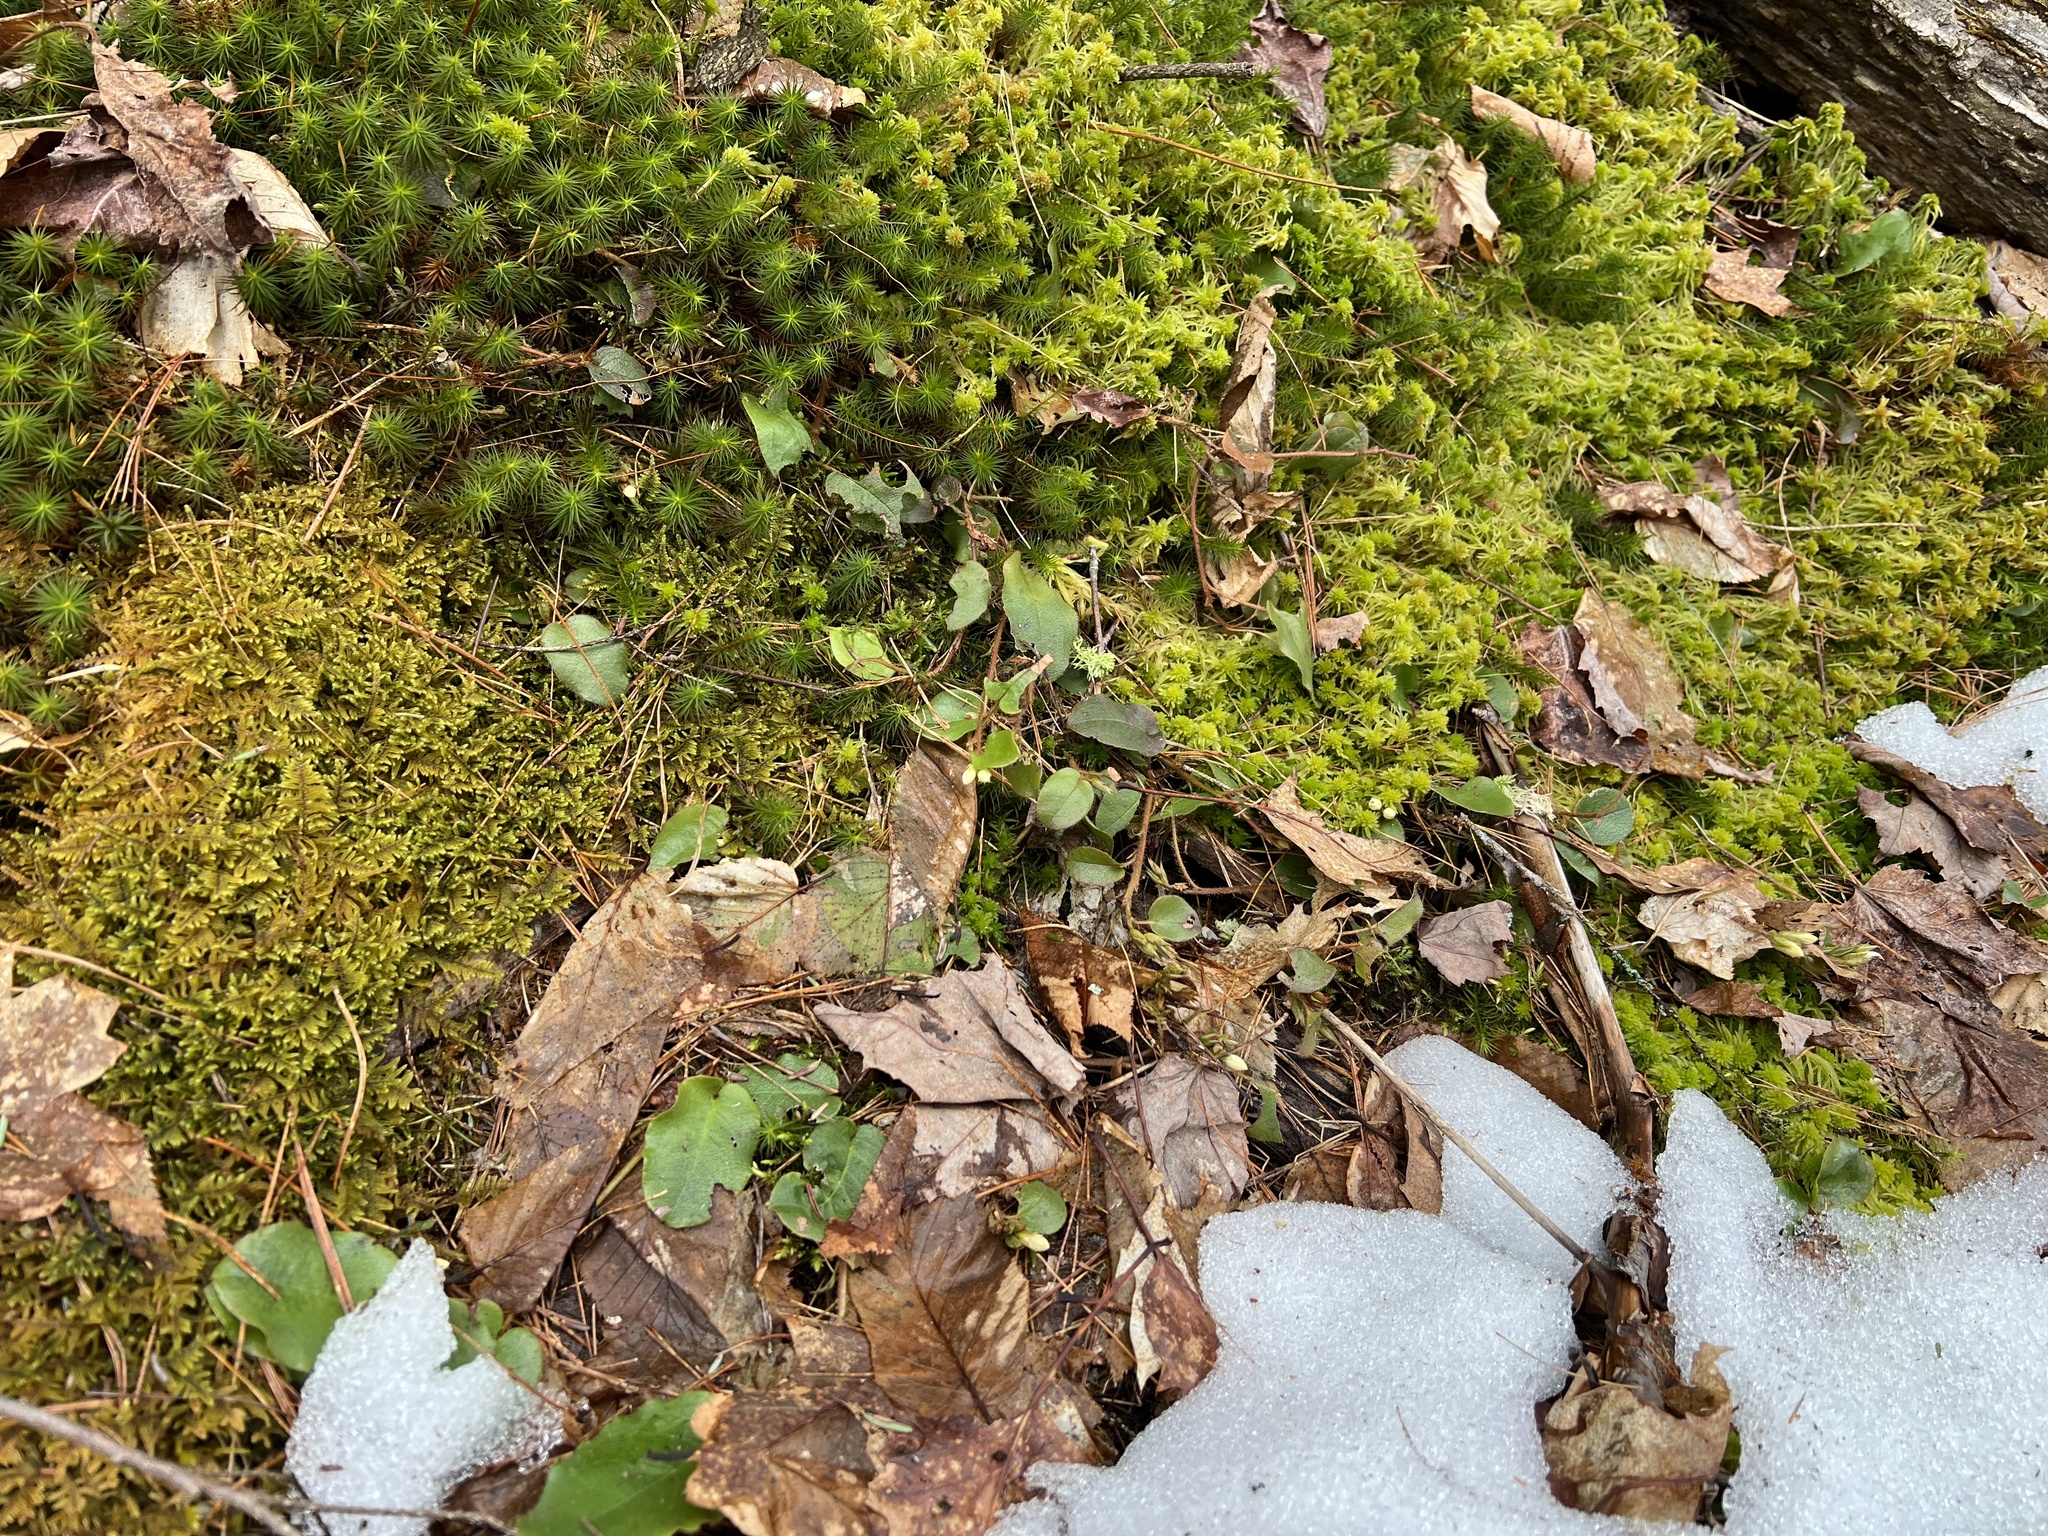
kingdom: Plantae
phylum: Tracheophyta
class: Magnoliopsida
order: Ericales
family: Ericaceae
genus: Epigaea
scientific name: Epigaea repens
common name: Gravelroot
